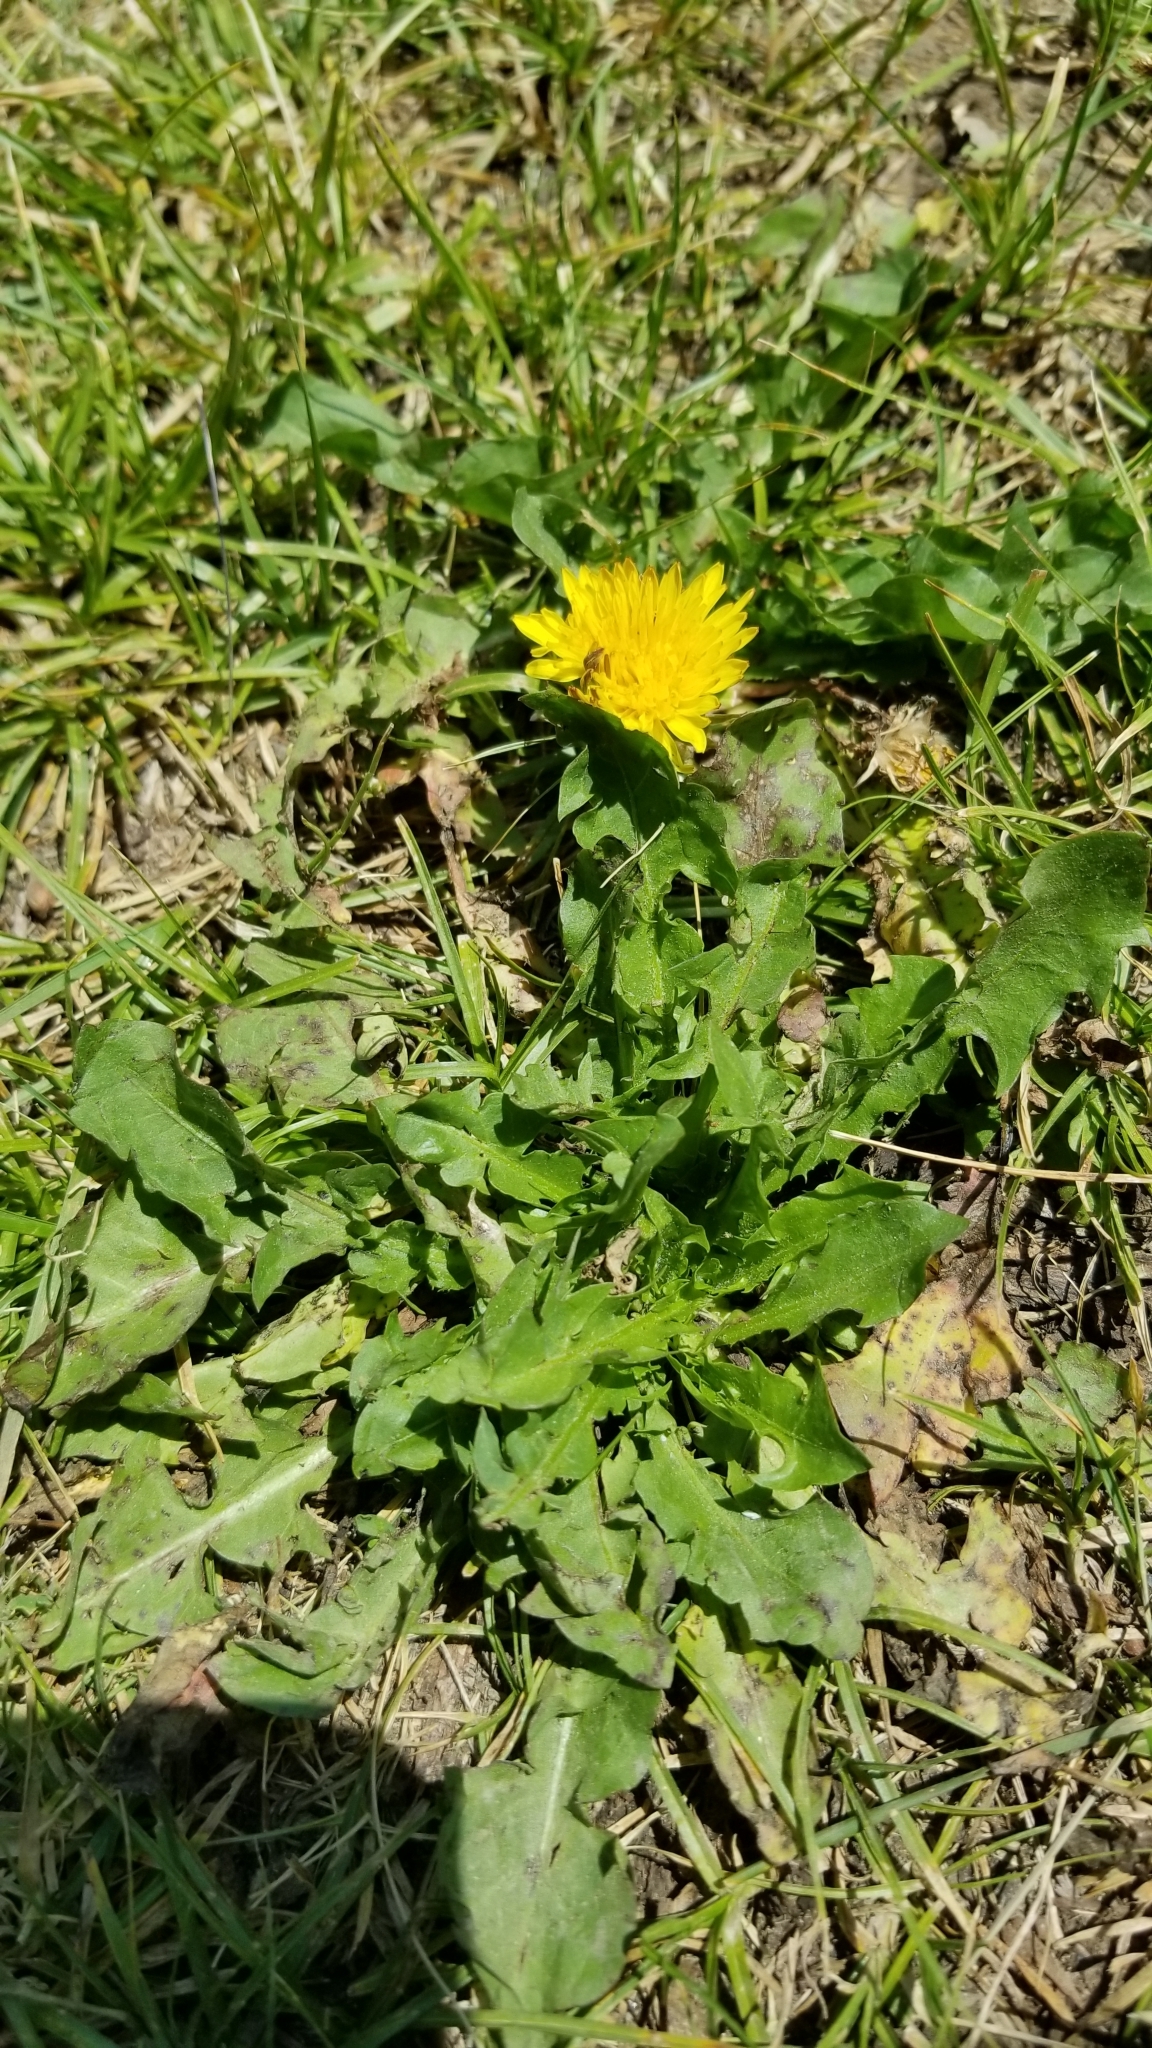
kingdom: Plantae
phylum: Tracheophyta
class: Magnoliopsida
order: Asterales
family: Asteraceae
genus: Taraxacum
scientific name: Taraxacum officinale
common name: Common dandelion
